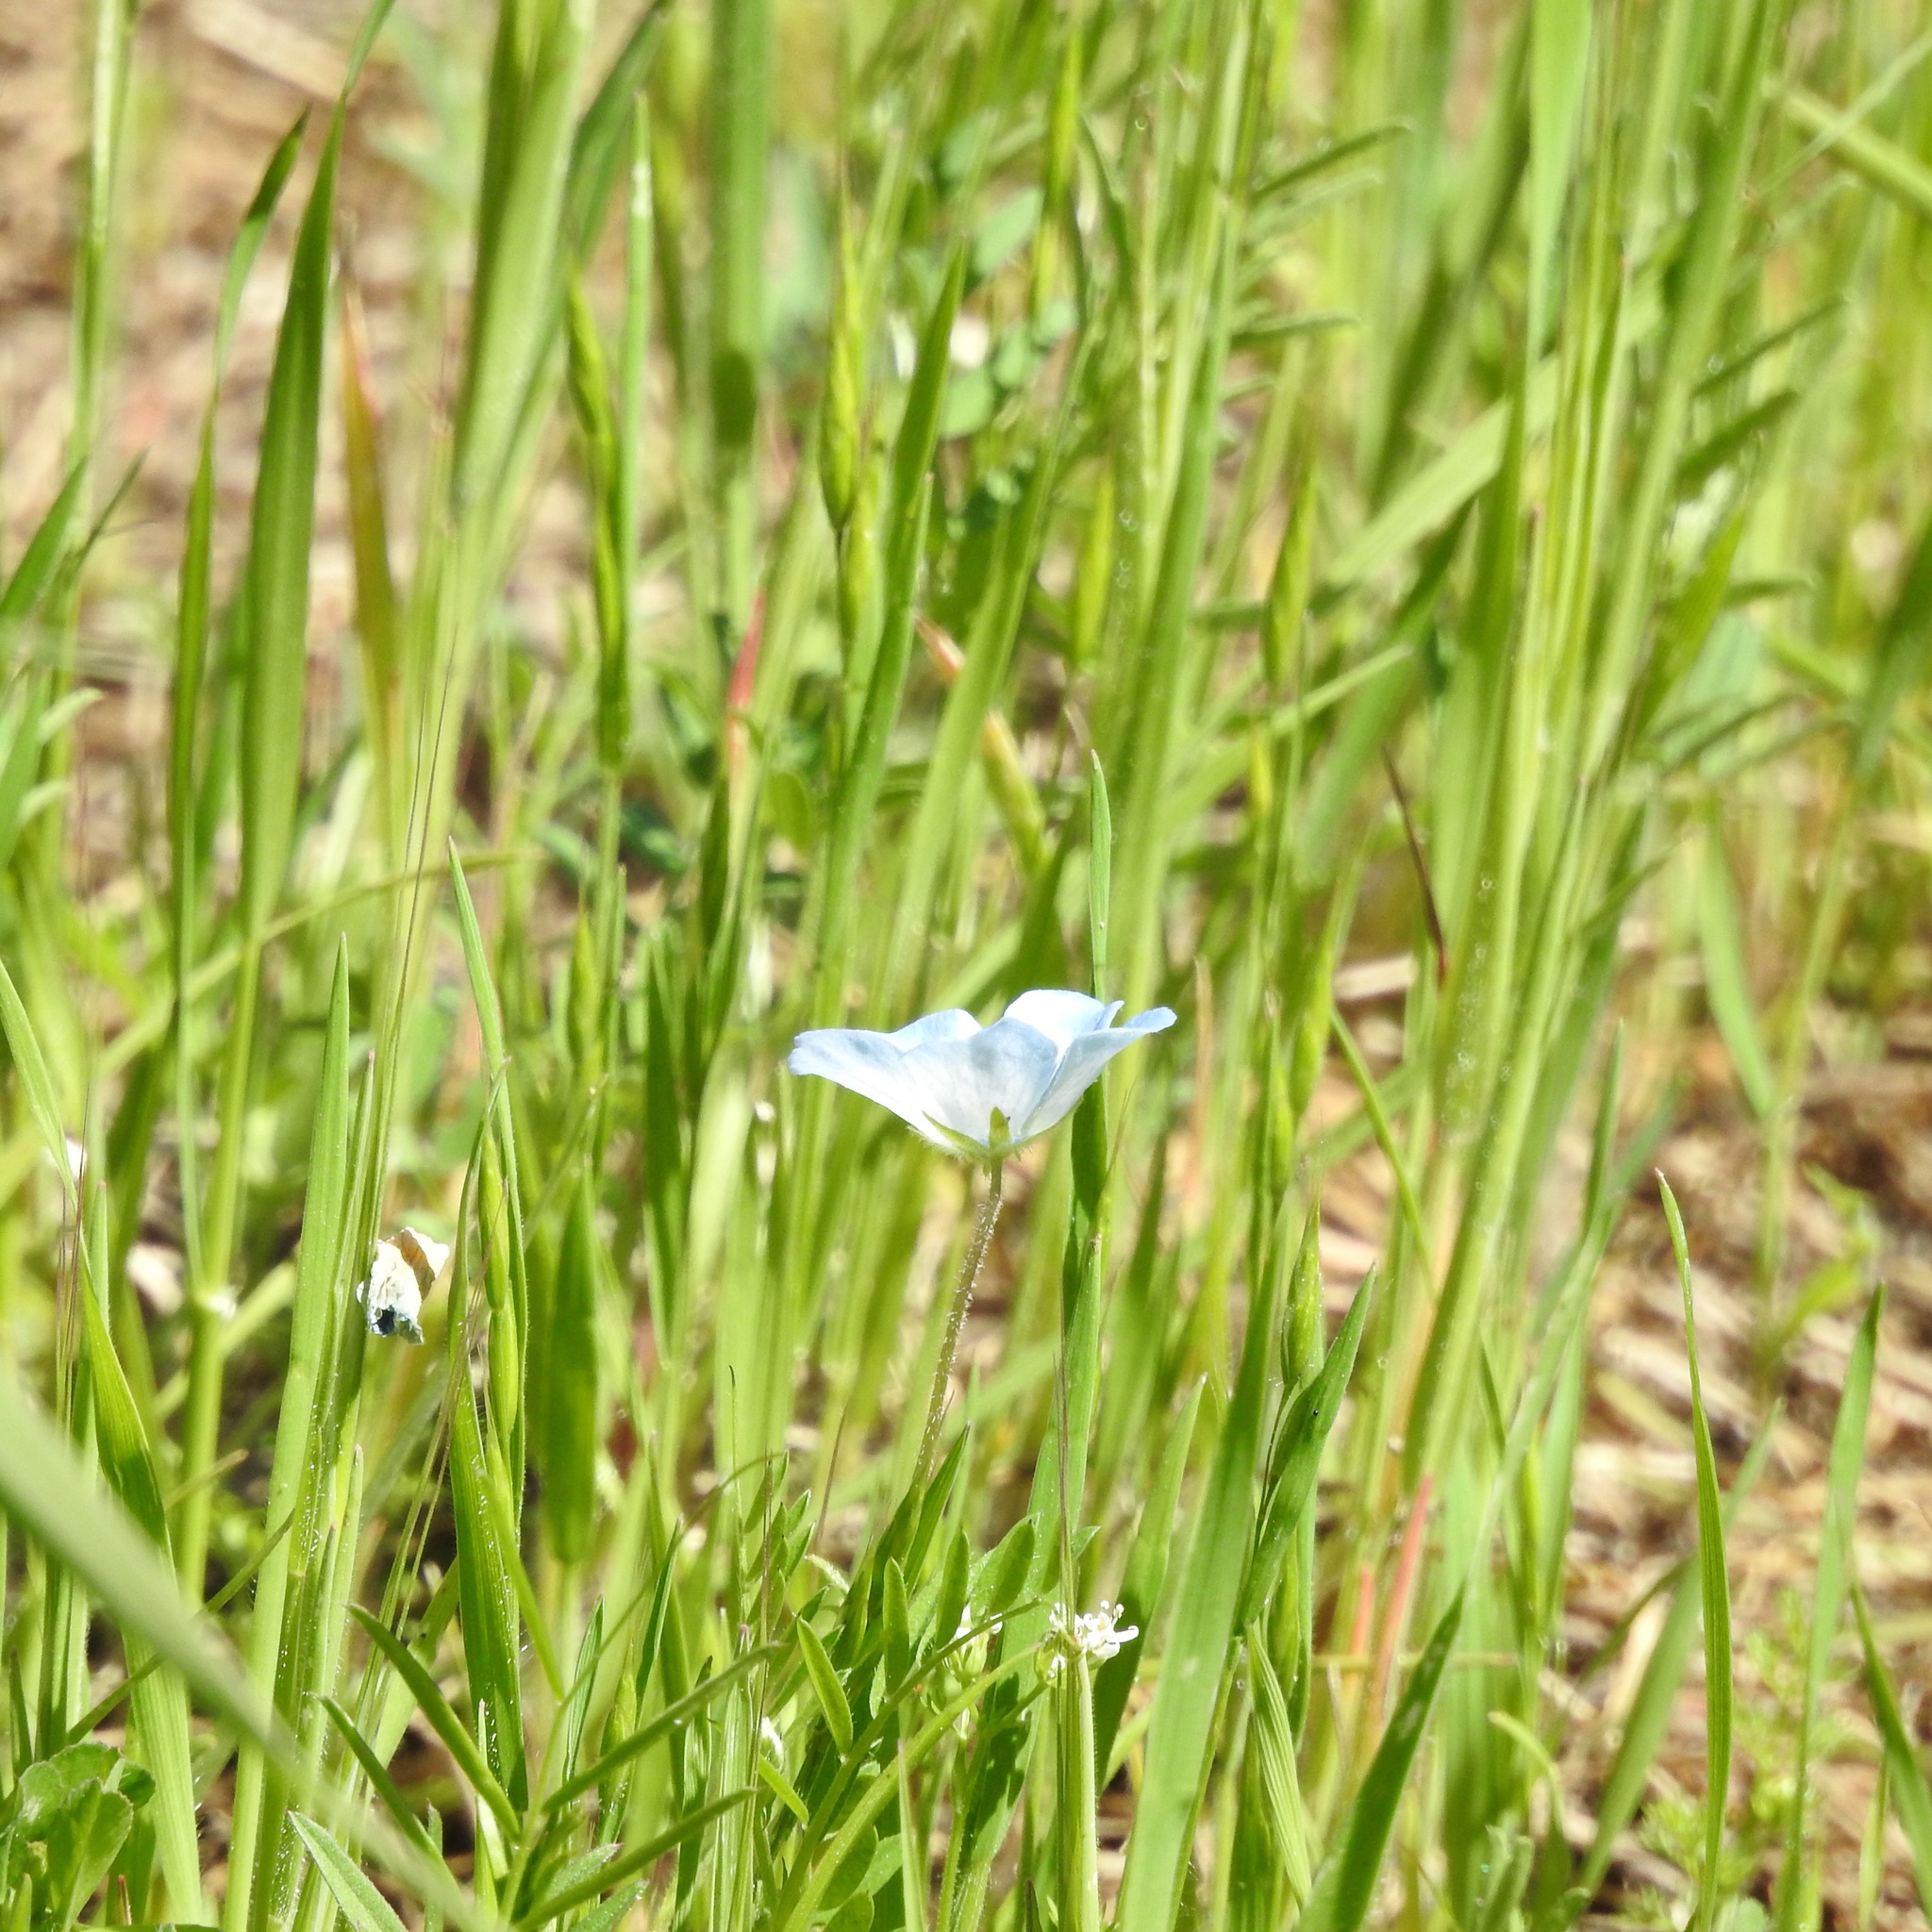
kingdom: Plantae
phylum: Tracheophyta
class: Magnoliopsida
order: Boraginales
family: Hydrophyllaceae
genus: Nemophila
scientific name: Nemophila menziesii
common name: Baby's-blue-eyes
